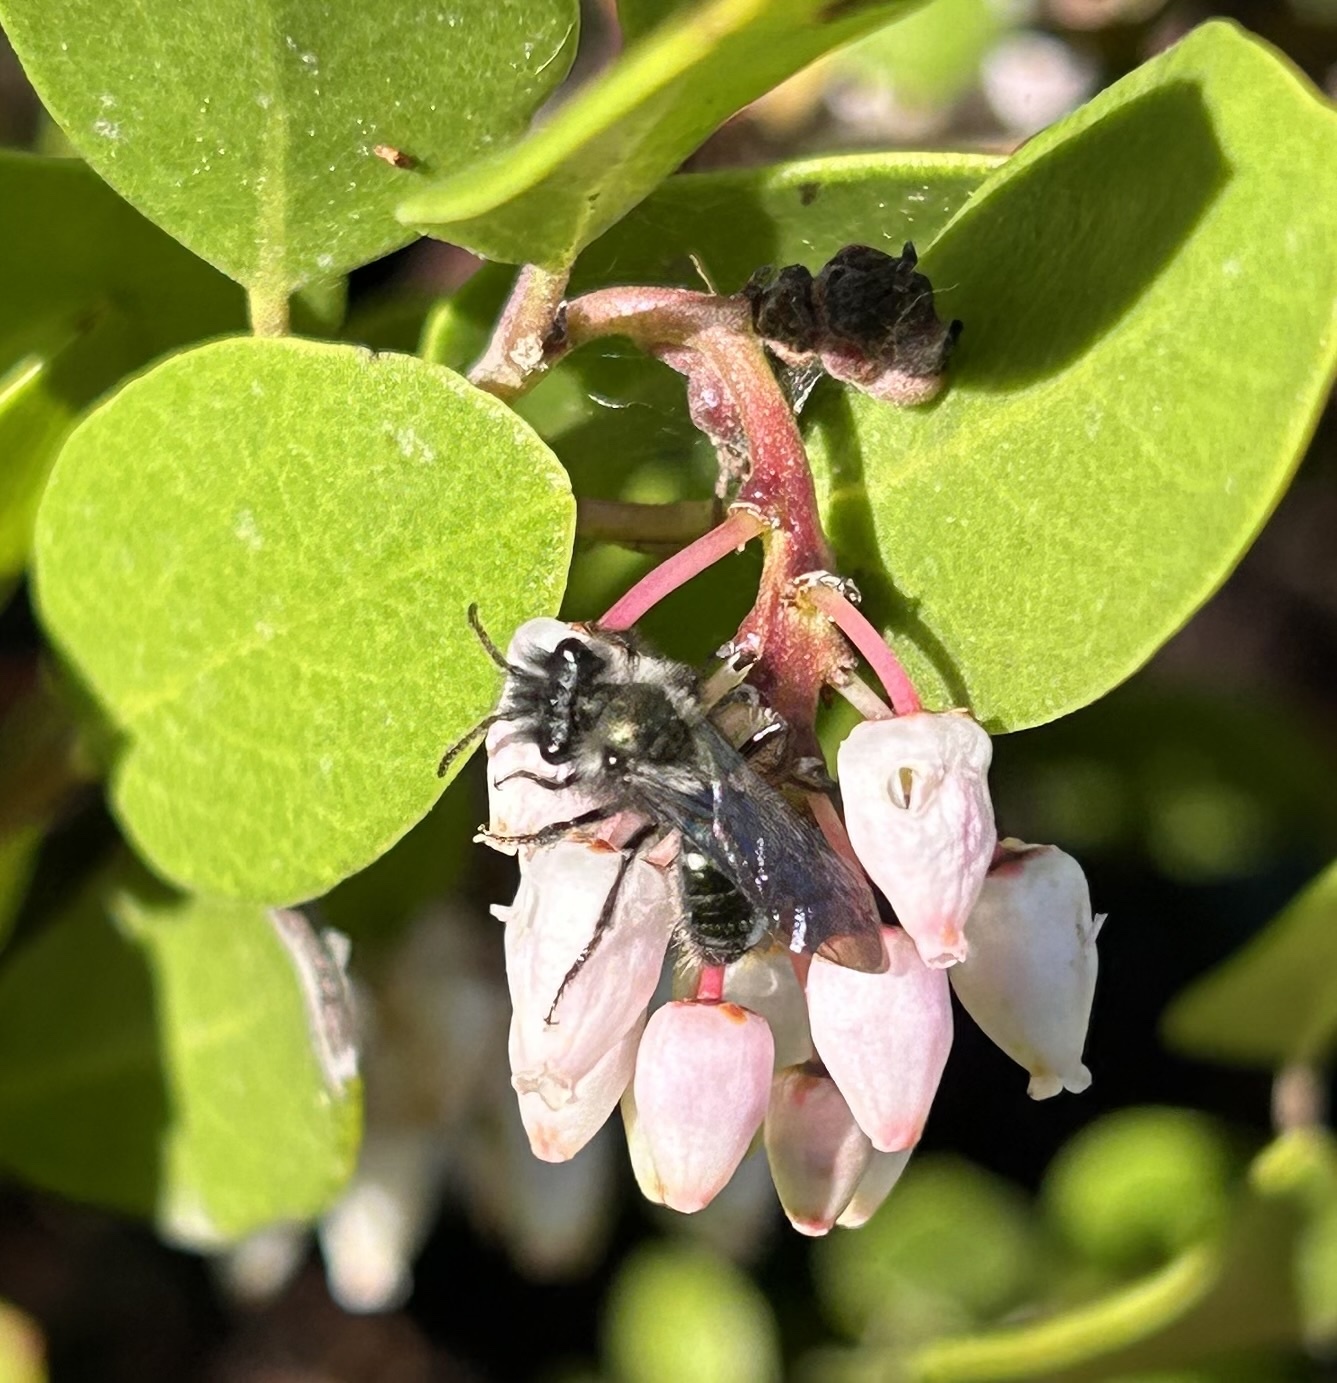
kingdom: Animalia
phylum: Arthropoda
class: Insecta
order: Hymenoptera
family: Andrenidae
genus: Andrena
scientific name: Andrena cerasifolii
